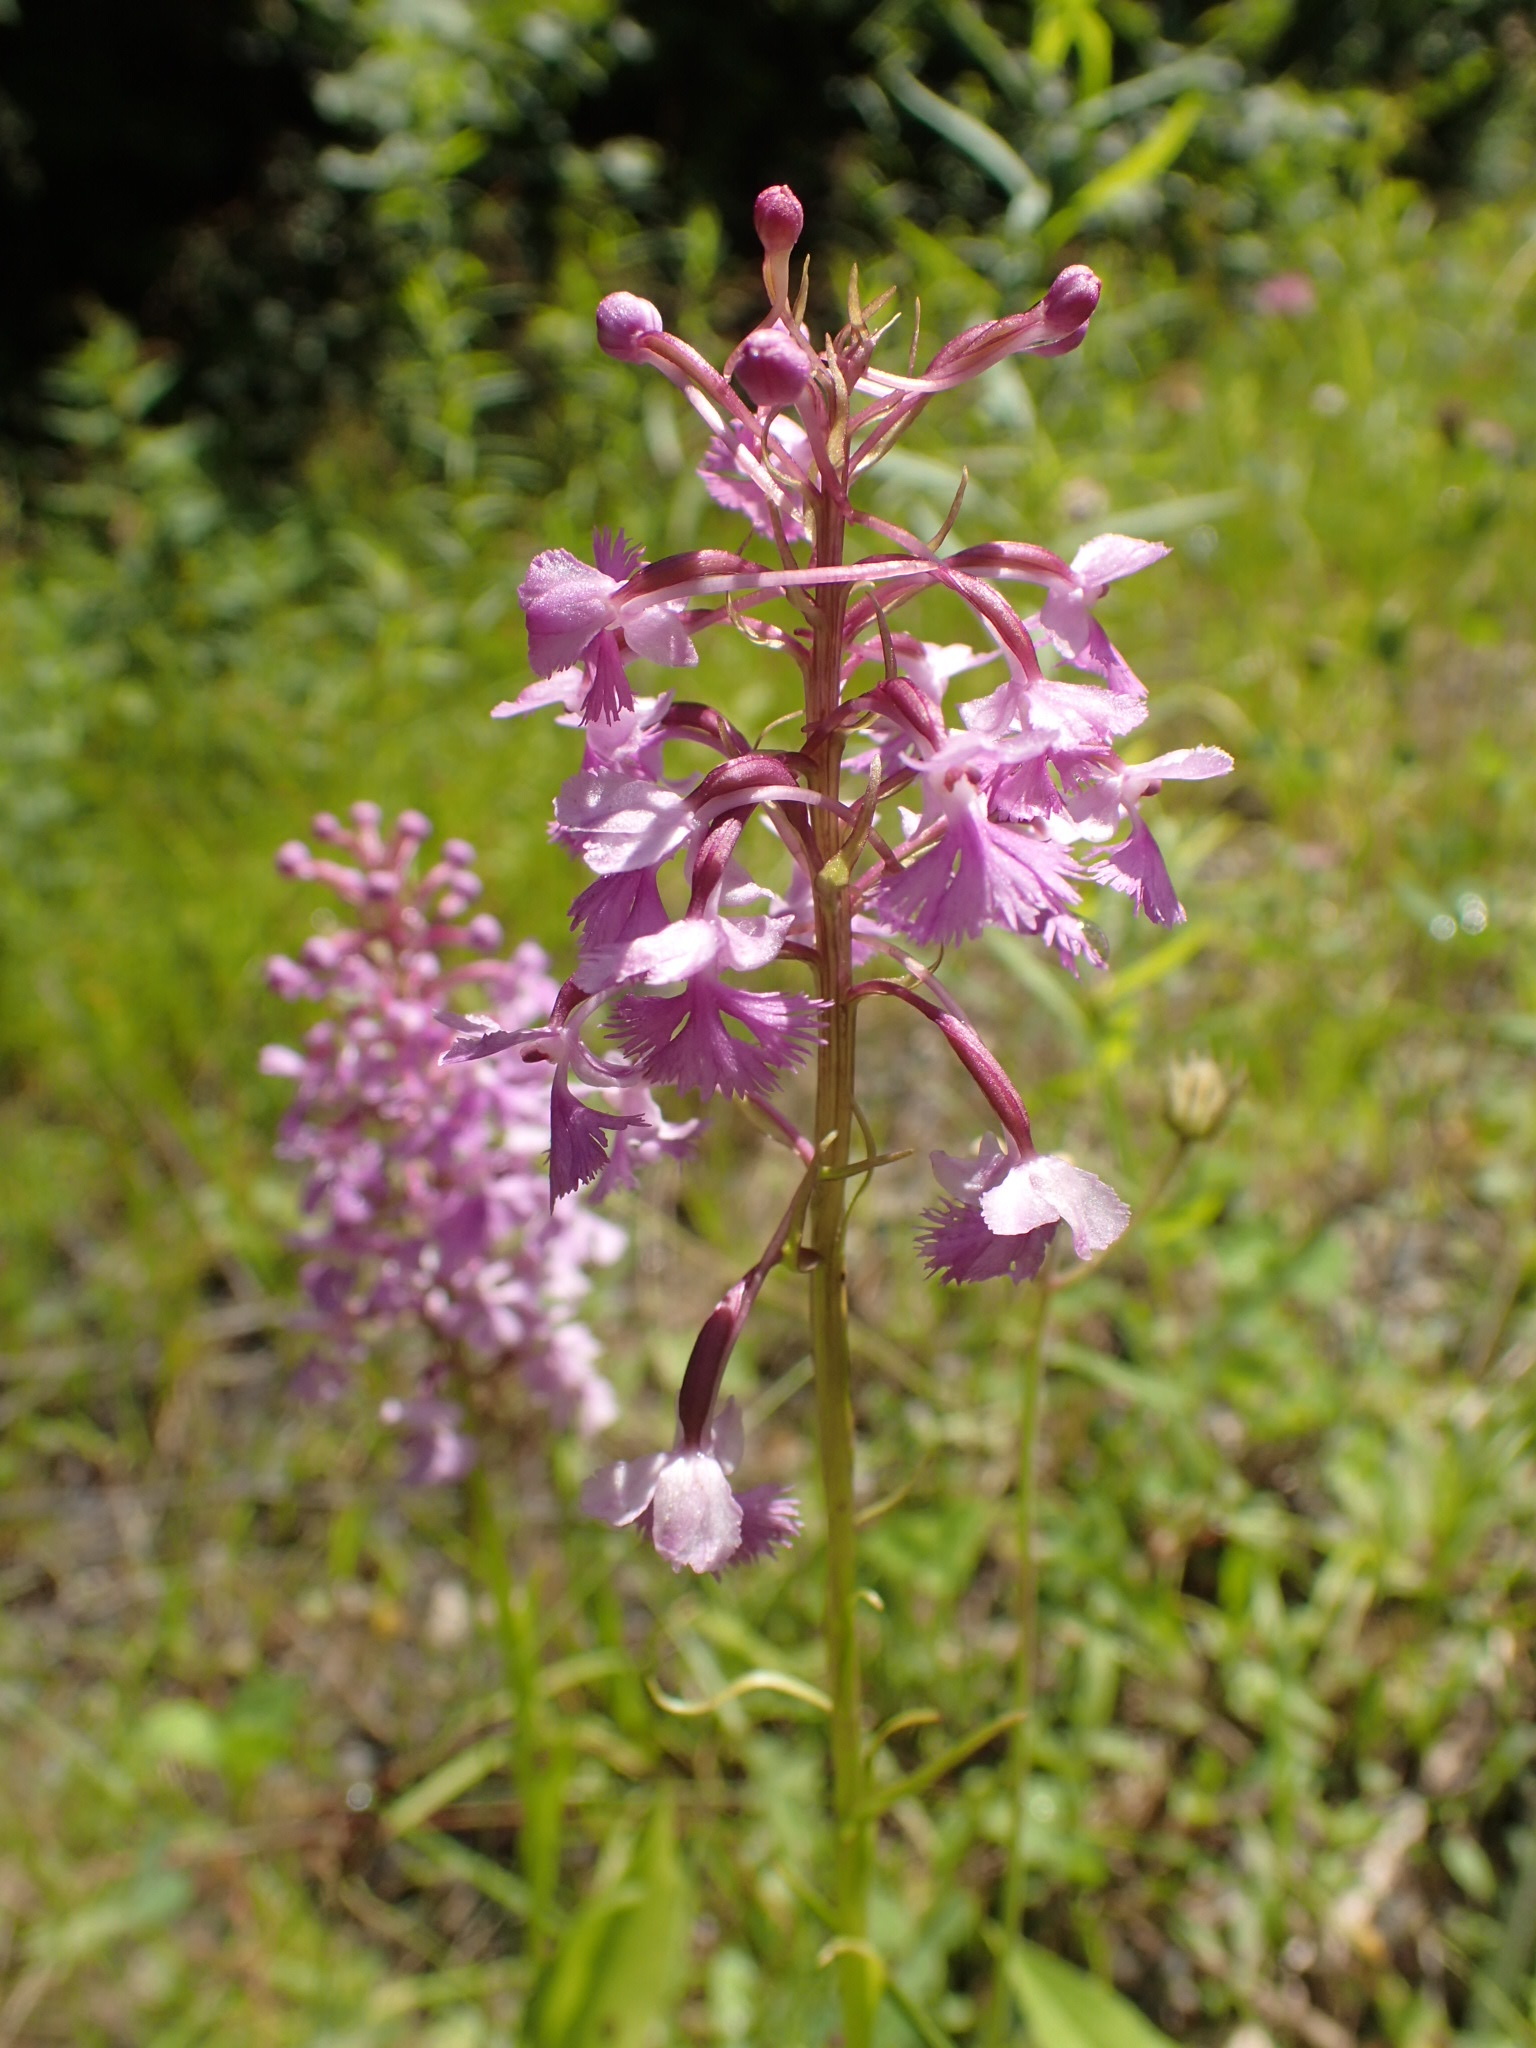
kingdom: Plantae
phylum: Tracheophyta
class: Liliopsida
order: Asparagales
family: Orchidaceae
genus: Platanthera
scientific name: Platanthera psycodes
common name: Lesser purple fringed orchid
